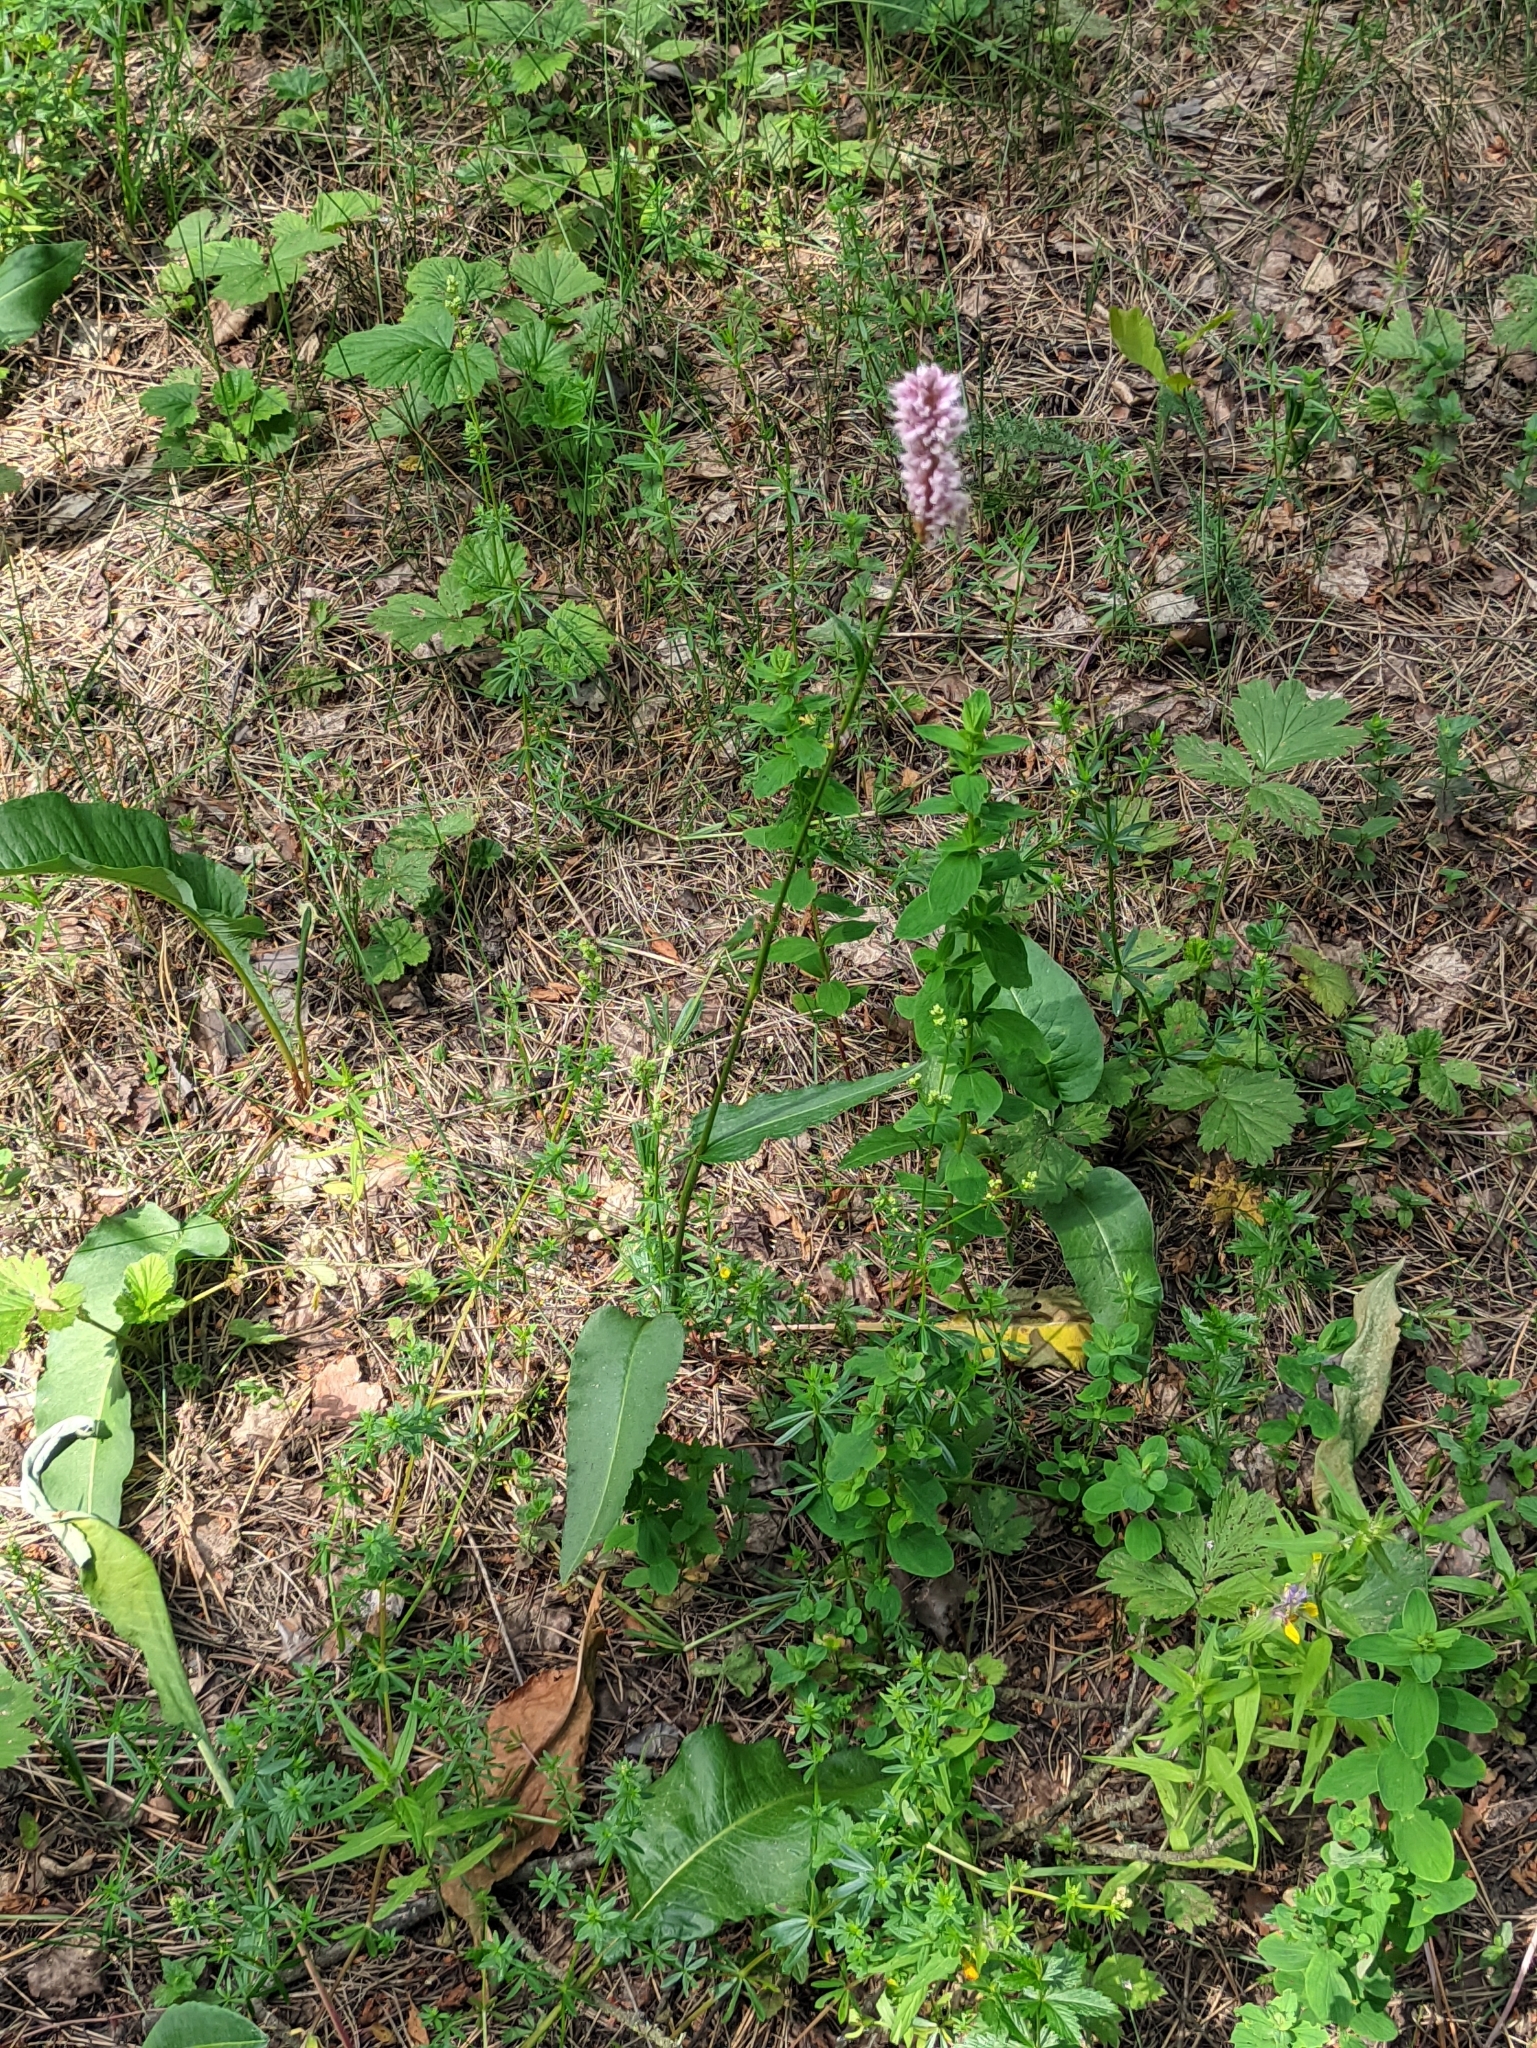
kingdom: Plantae
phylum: Tracheophyta
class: Magnoliopsida
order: Caryophyllales
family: Polygonaceae
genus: Bistorta
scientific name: Bistorta officinalis
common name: Common bistort
